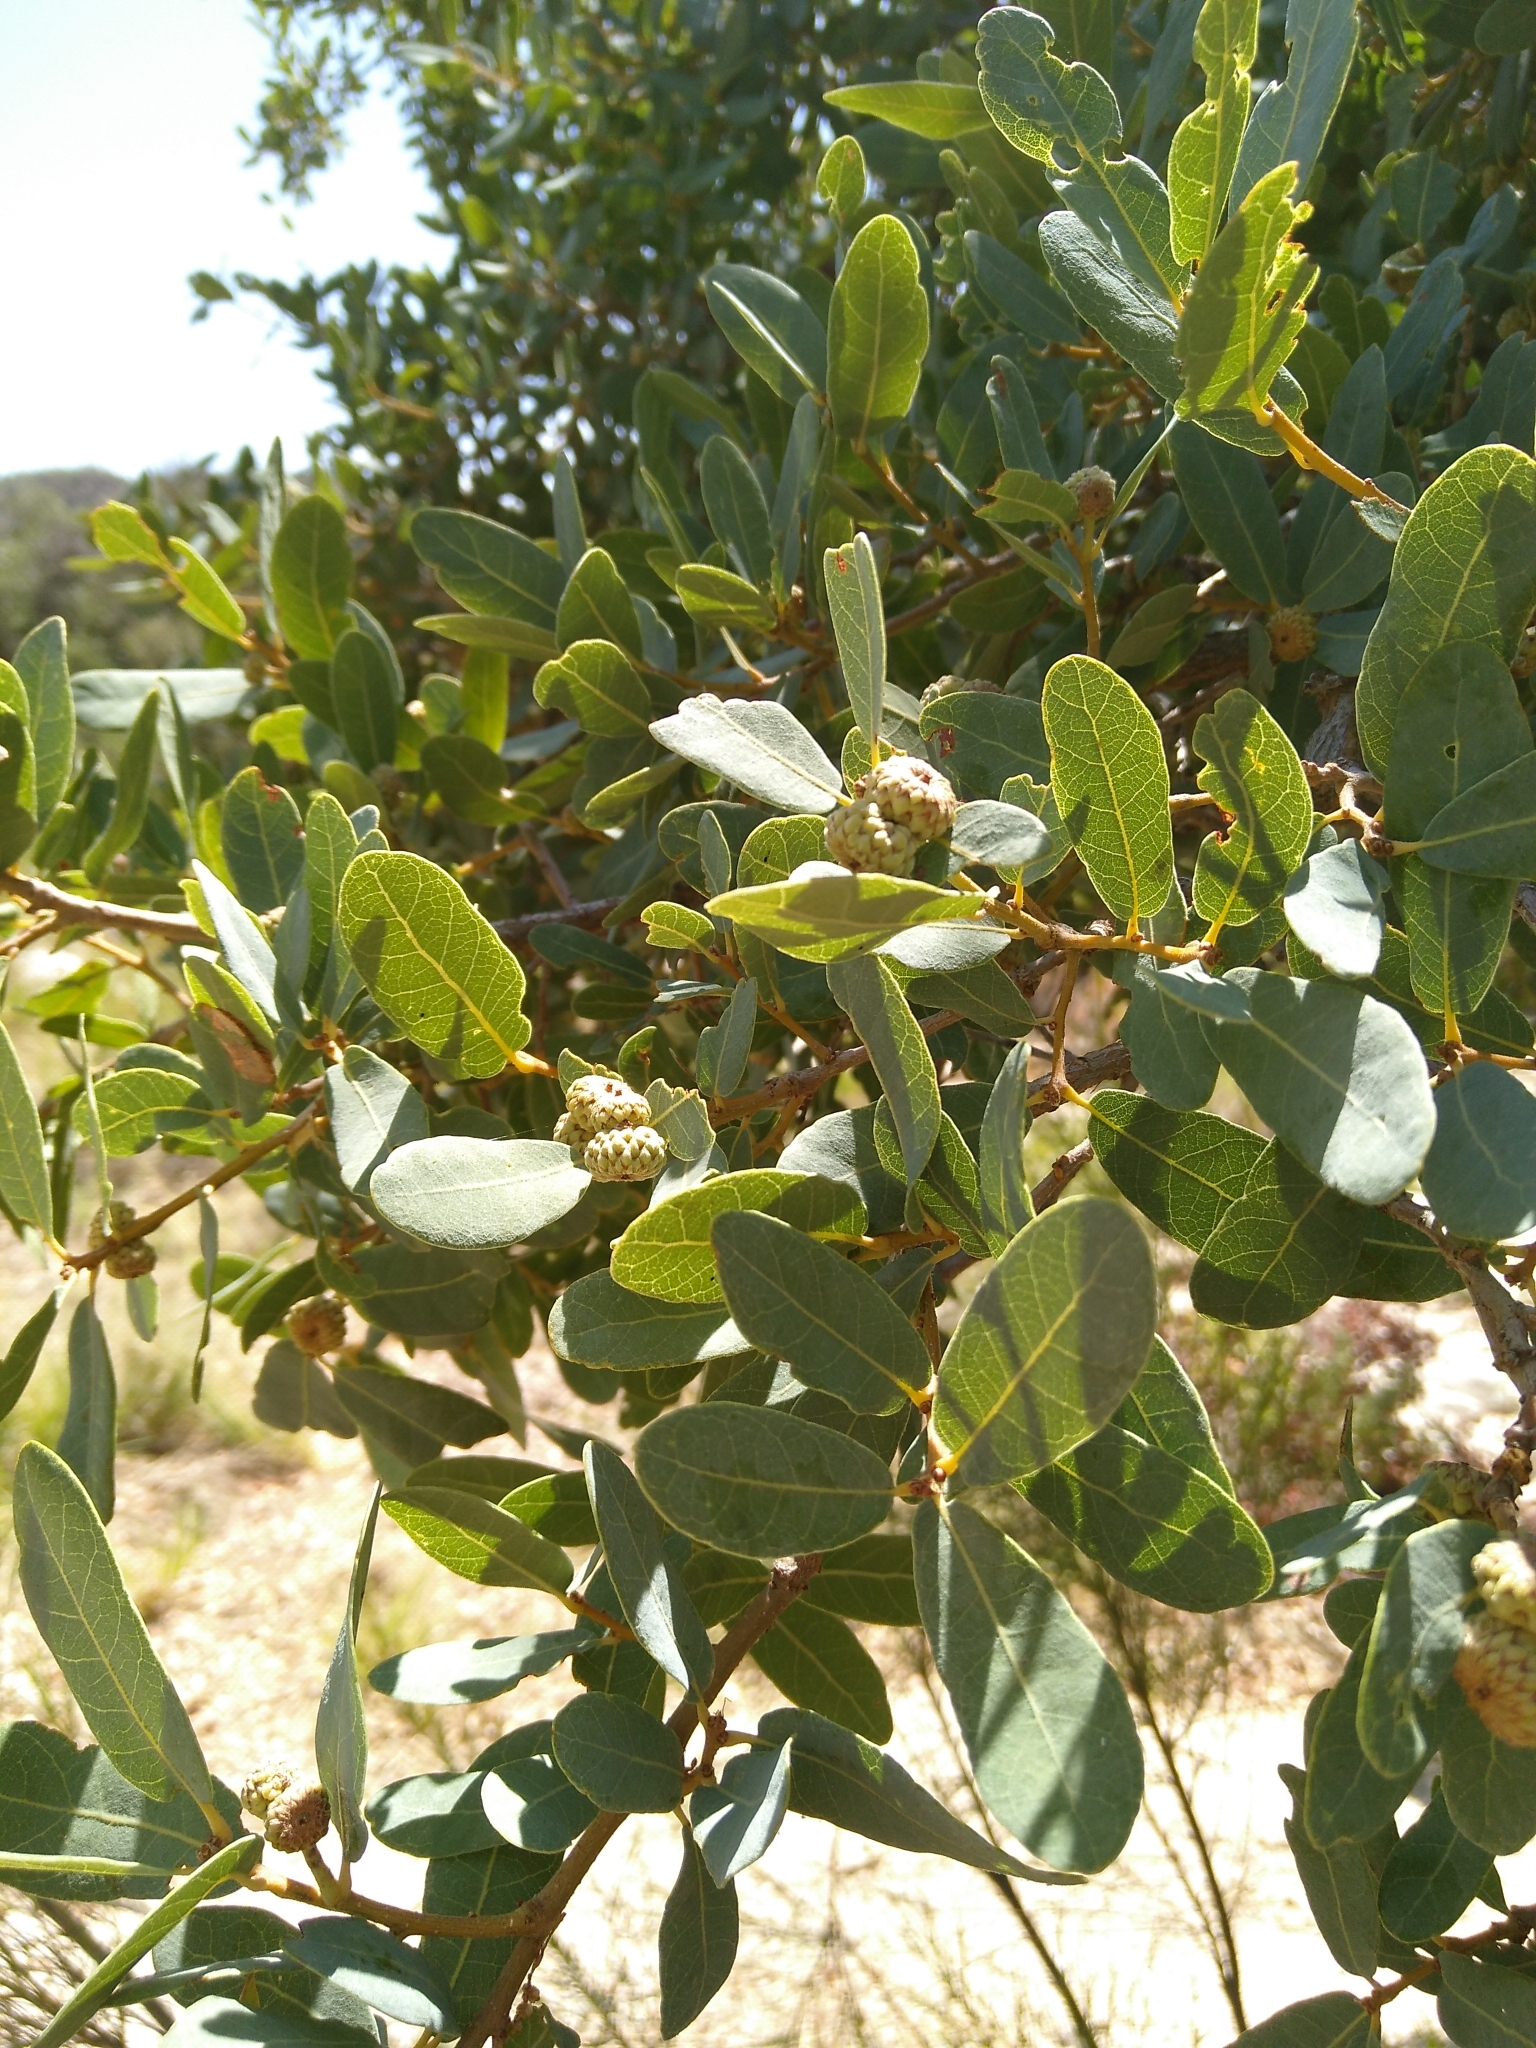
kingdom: Plantae
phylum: Tracheophyta
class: Magnoliopsida
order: Fagales
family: Fagaceae
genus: Quercus
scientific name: Quercus oblongifolia
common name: Mexican blue oak
